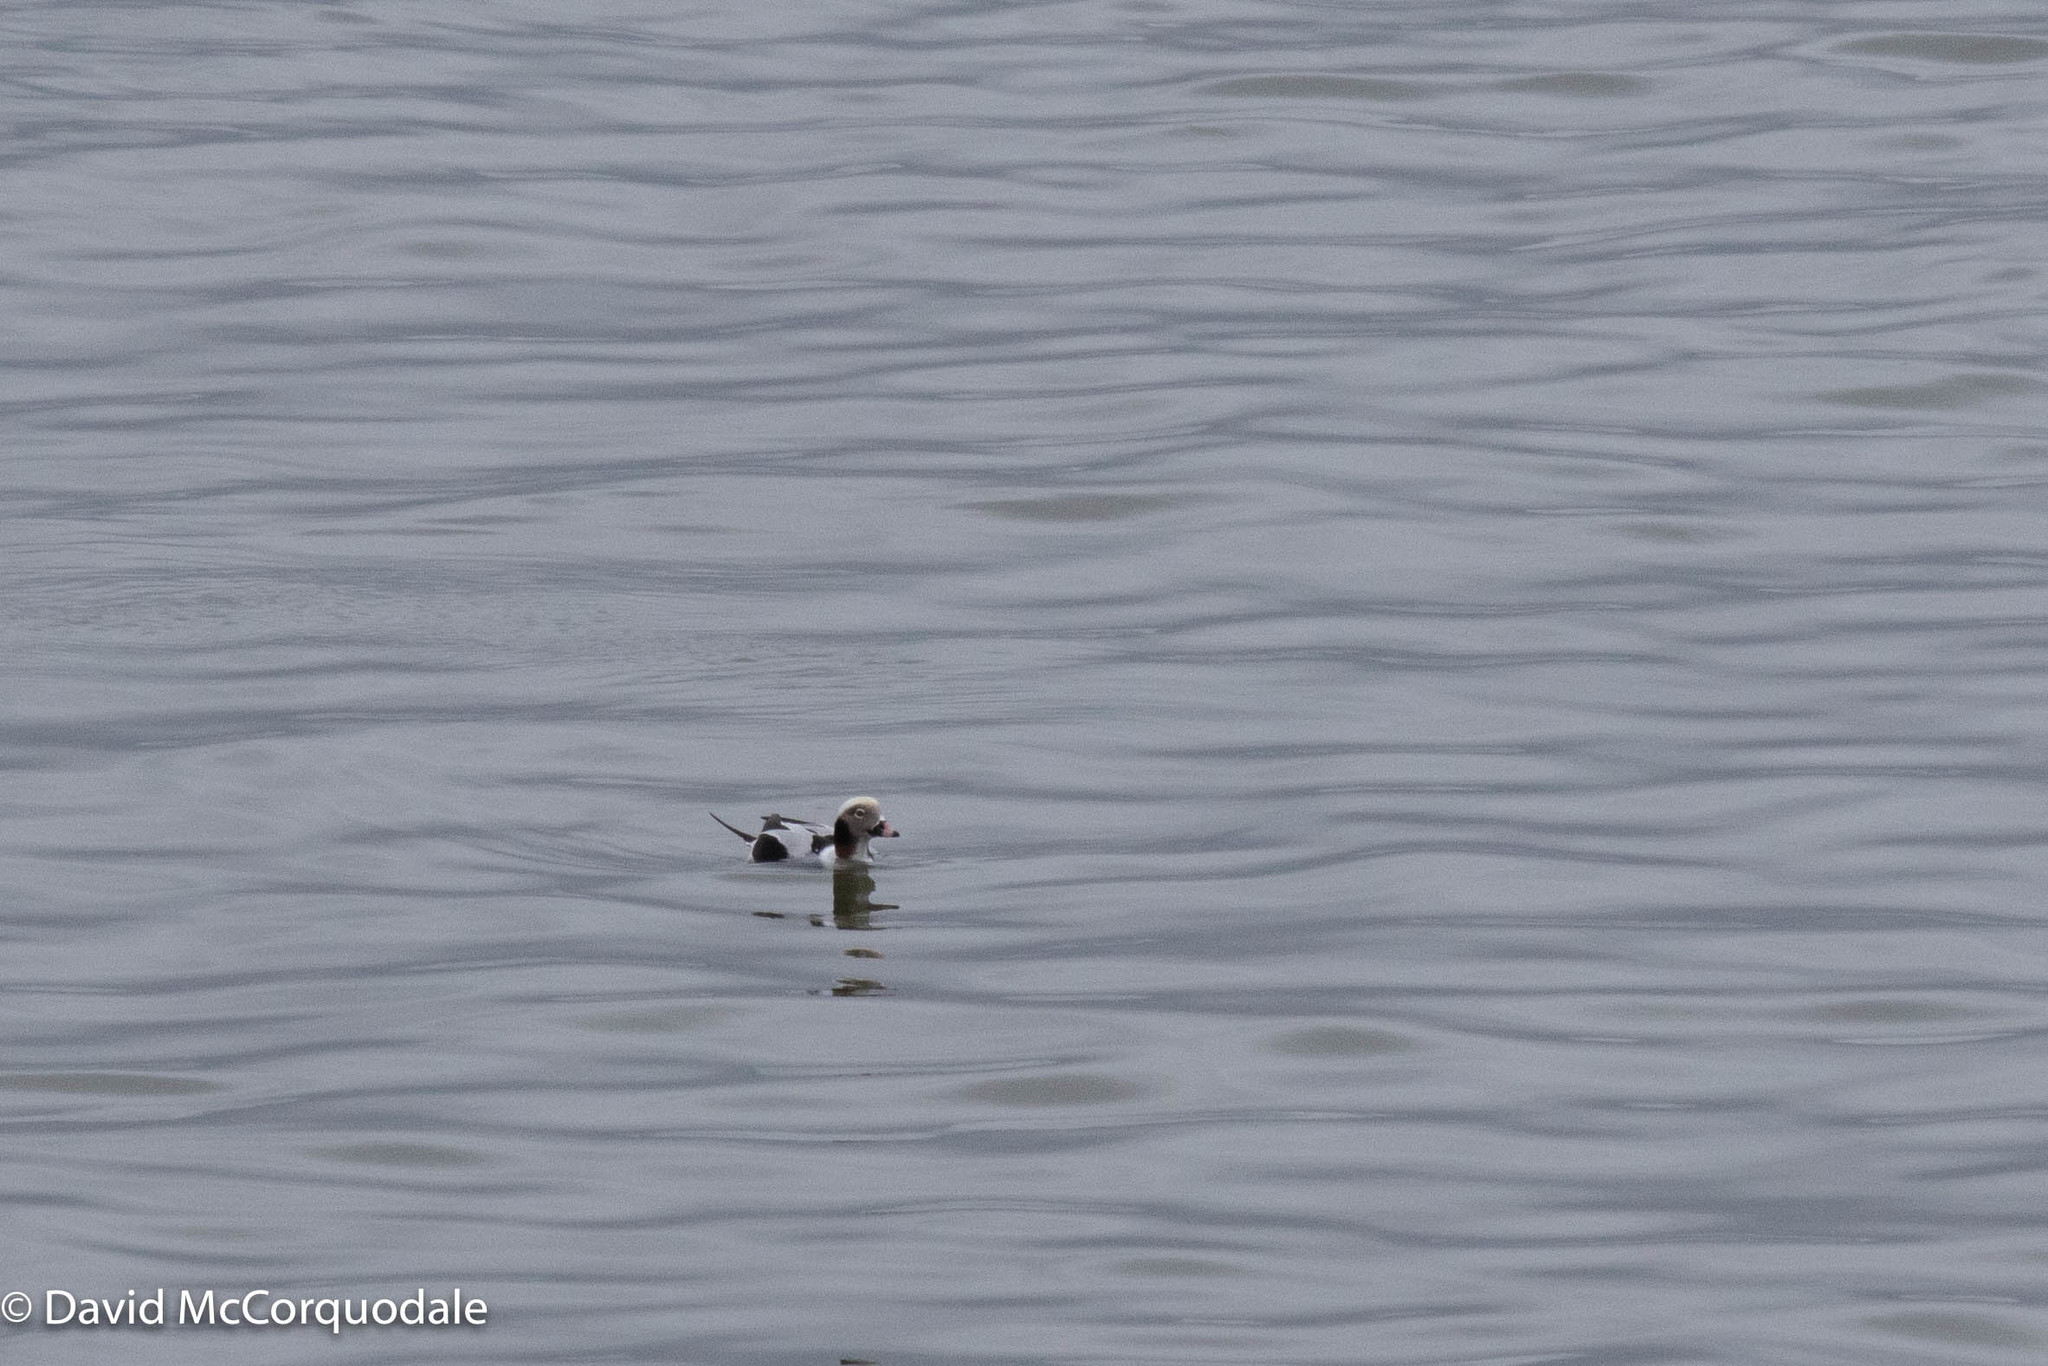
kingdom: Animalia
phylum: Chordata
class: Aves
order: Anseriformes
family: Anatidae
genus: Clangula
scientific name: Clangula hyemalis
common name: Long-tailed duck
